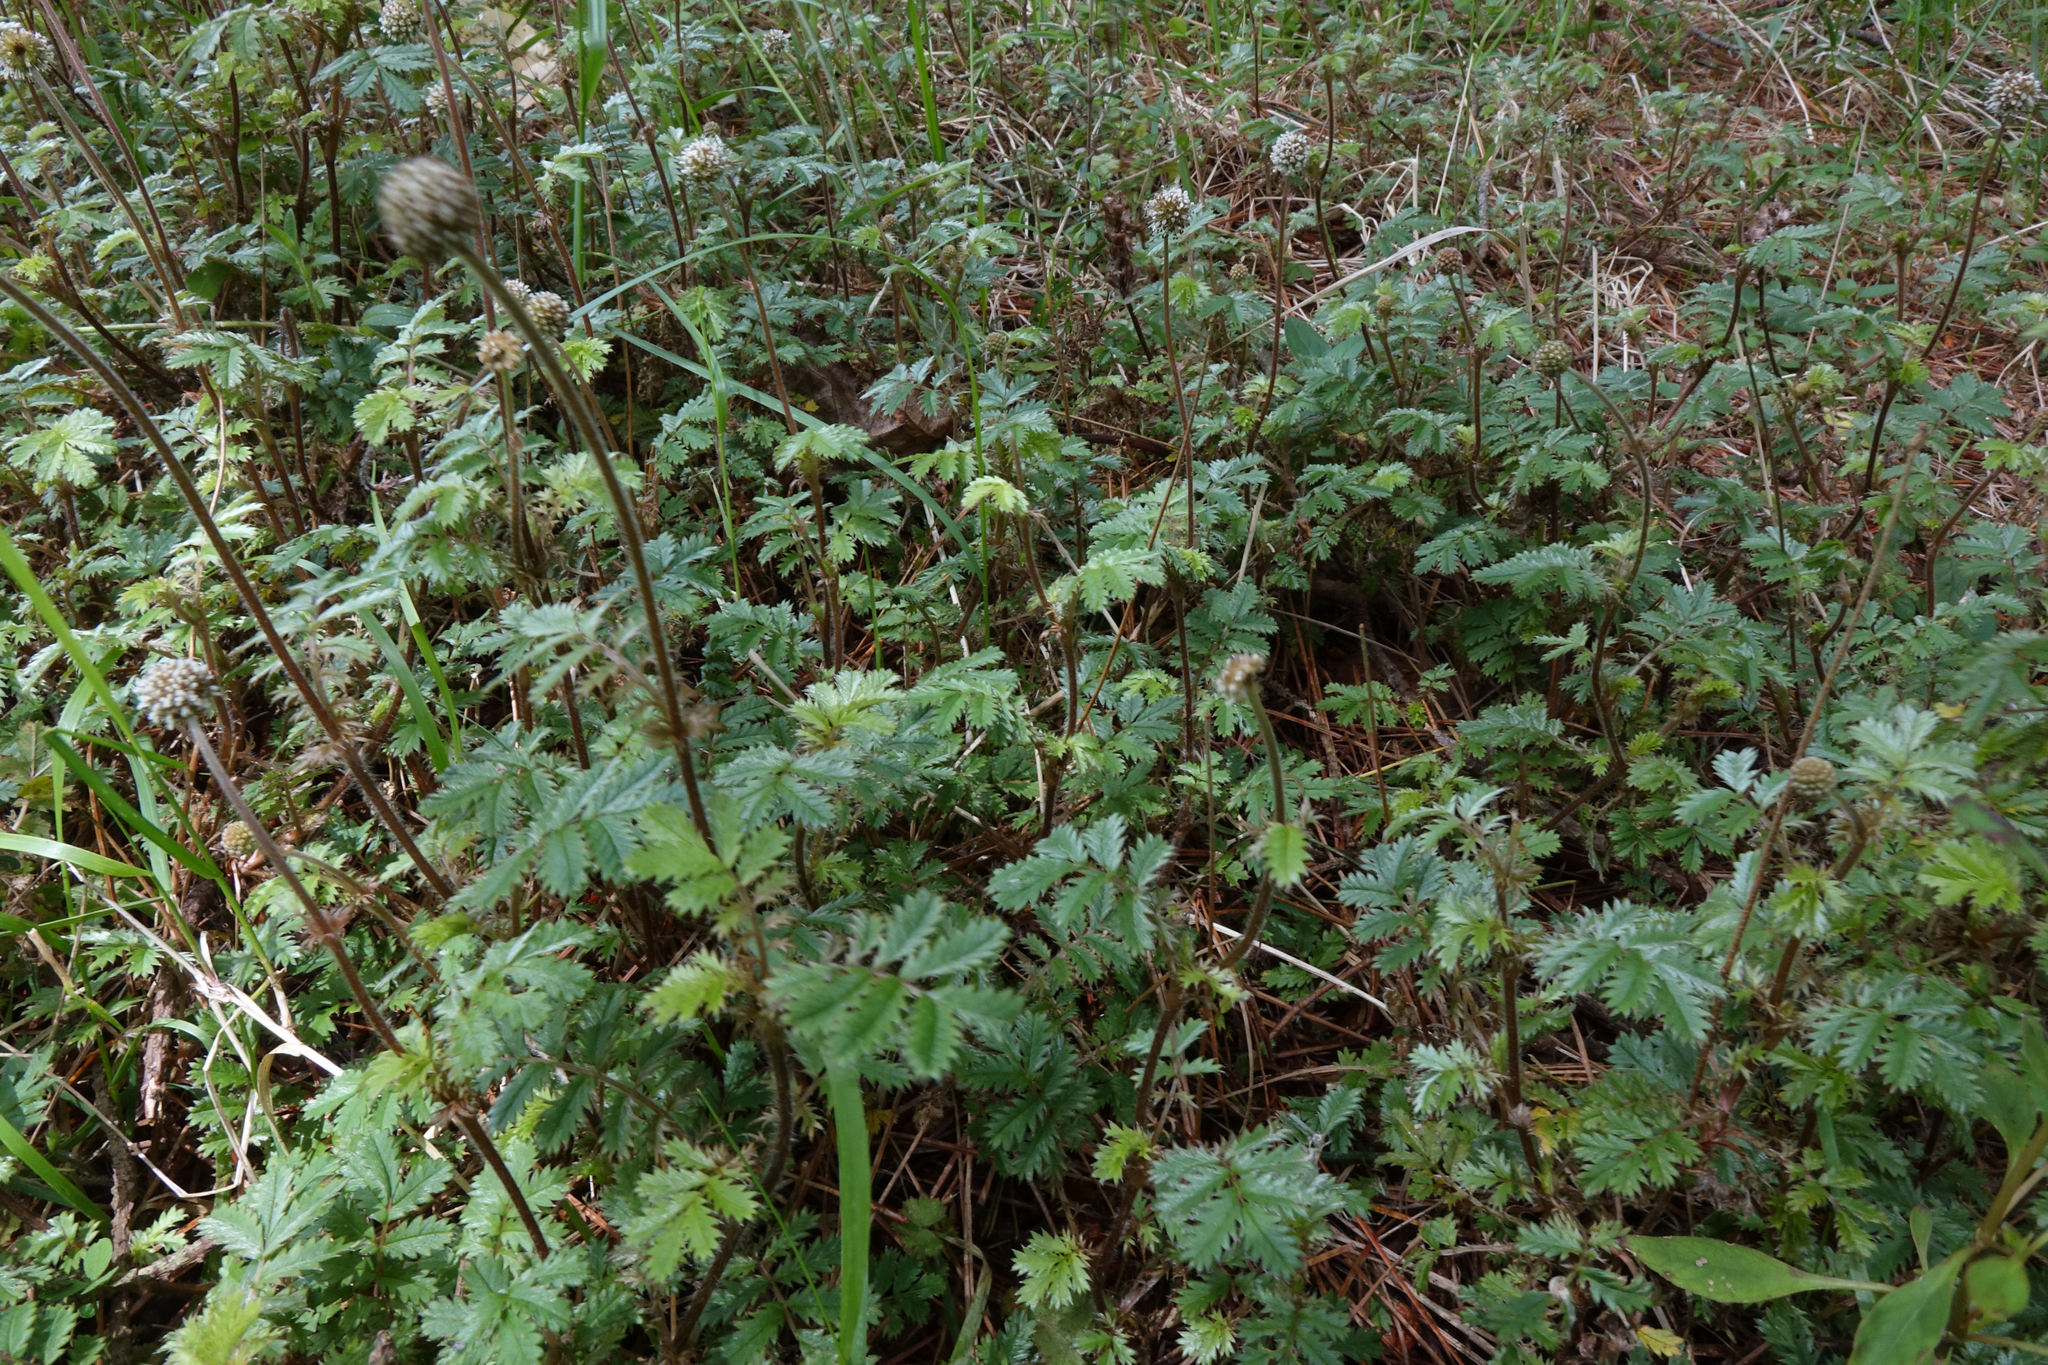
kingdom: Plantae
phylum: Tracheophyta
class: Magnoliopsida
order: Rosales
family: Rosaceae
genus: Acaena
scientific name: Acaena anserinifolia
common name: Bronze pirri-pirri-bur
